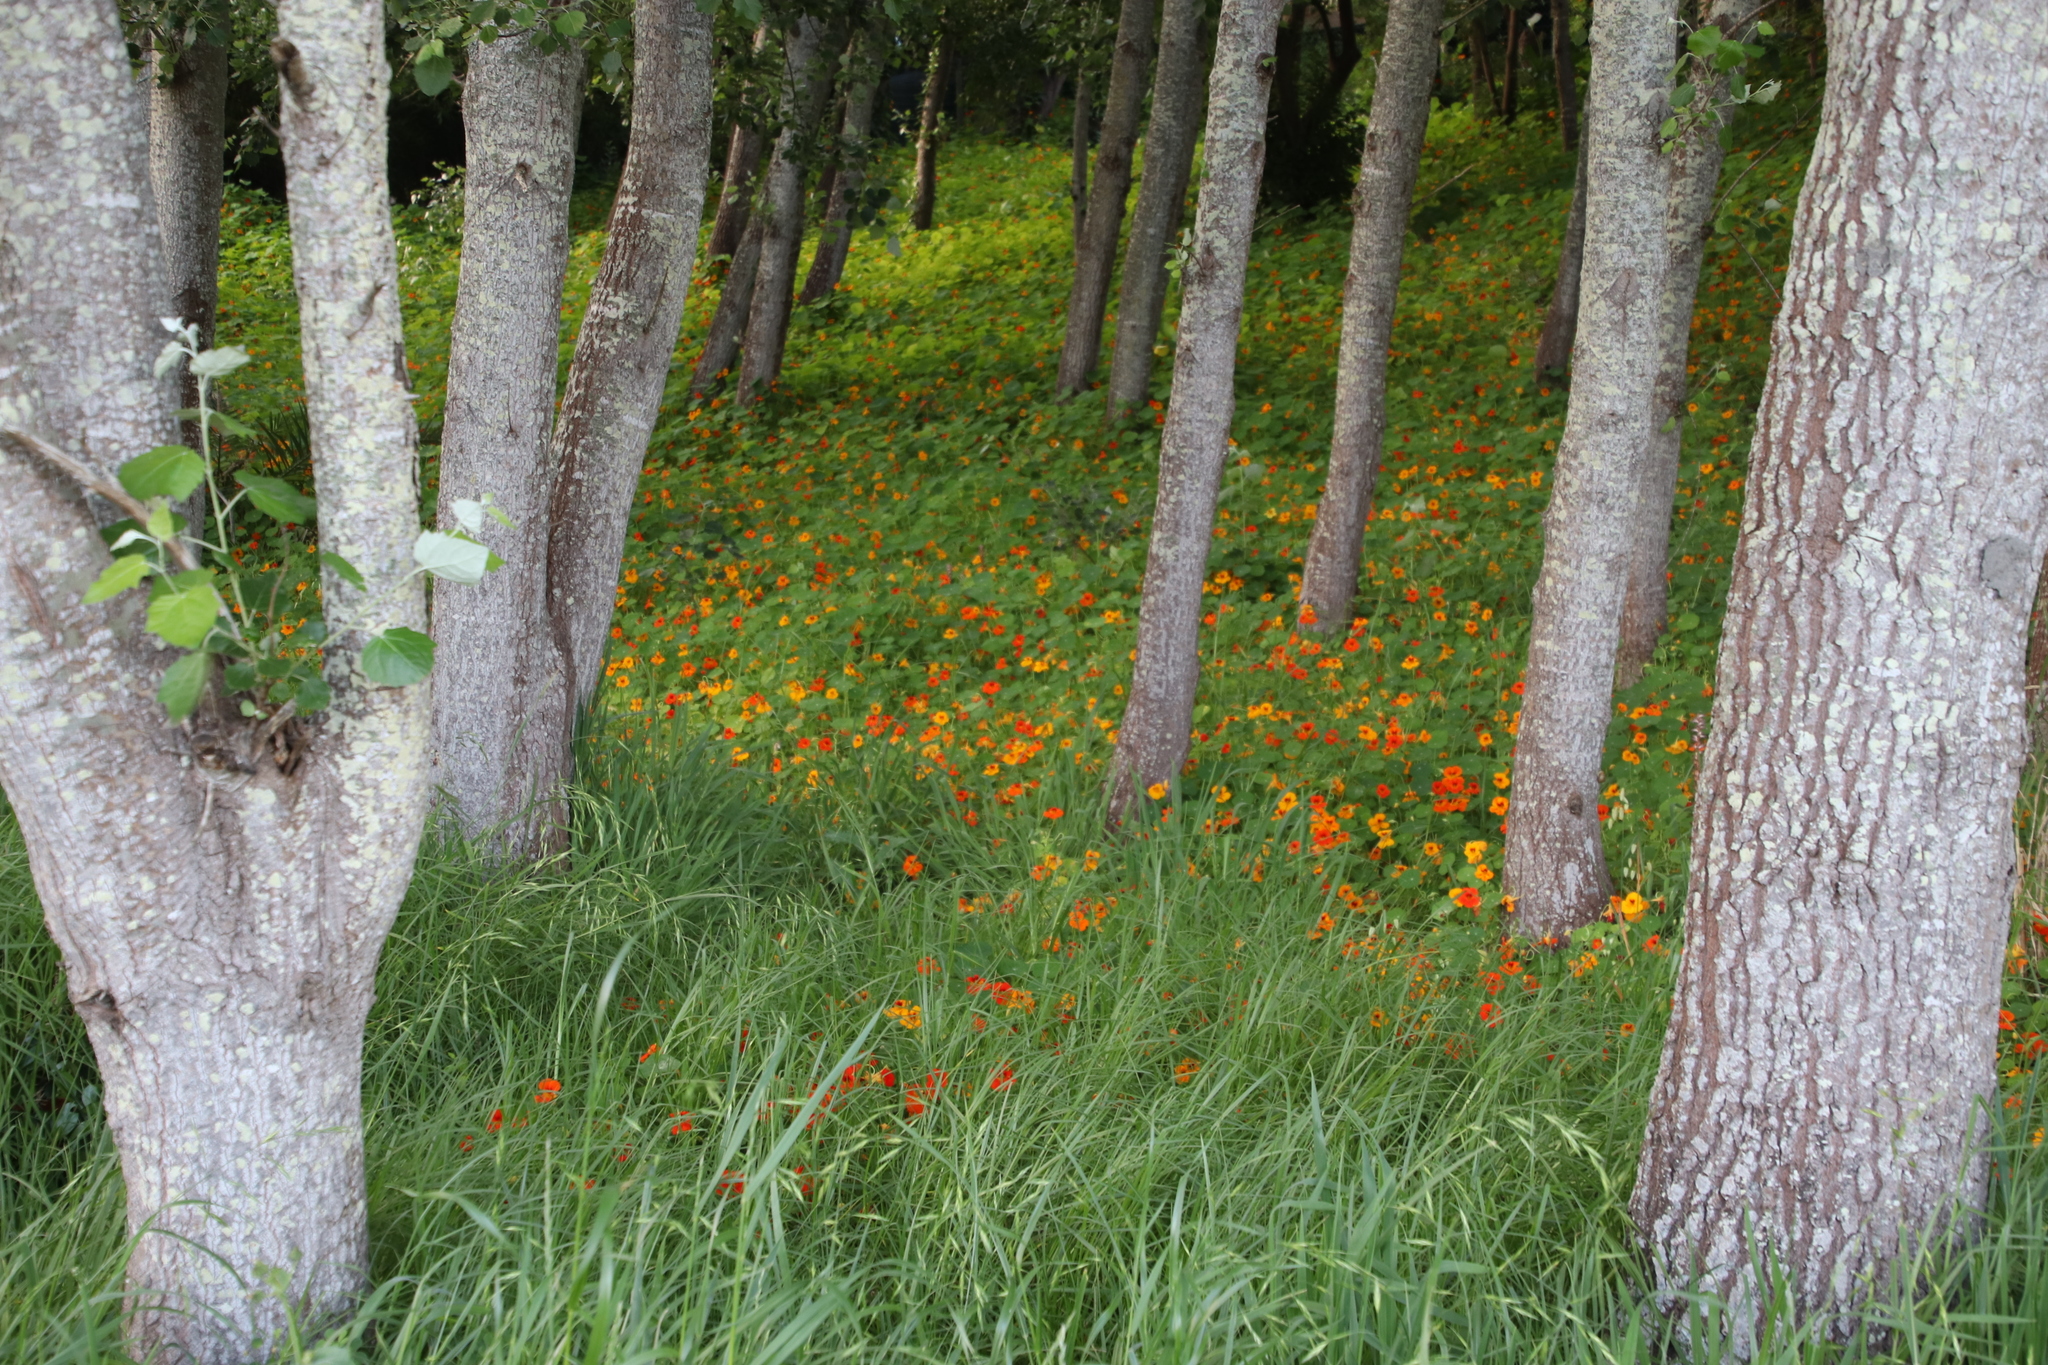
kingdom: Plantae
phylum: Tracheophyta
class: Magnoliopsida
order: Brassicales
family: Tropaeolaceae
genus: Tropaeolum
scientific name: Tropaeolum majus
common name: Nasturtium
